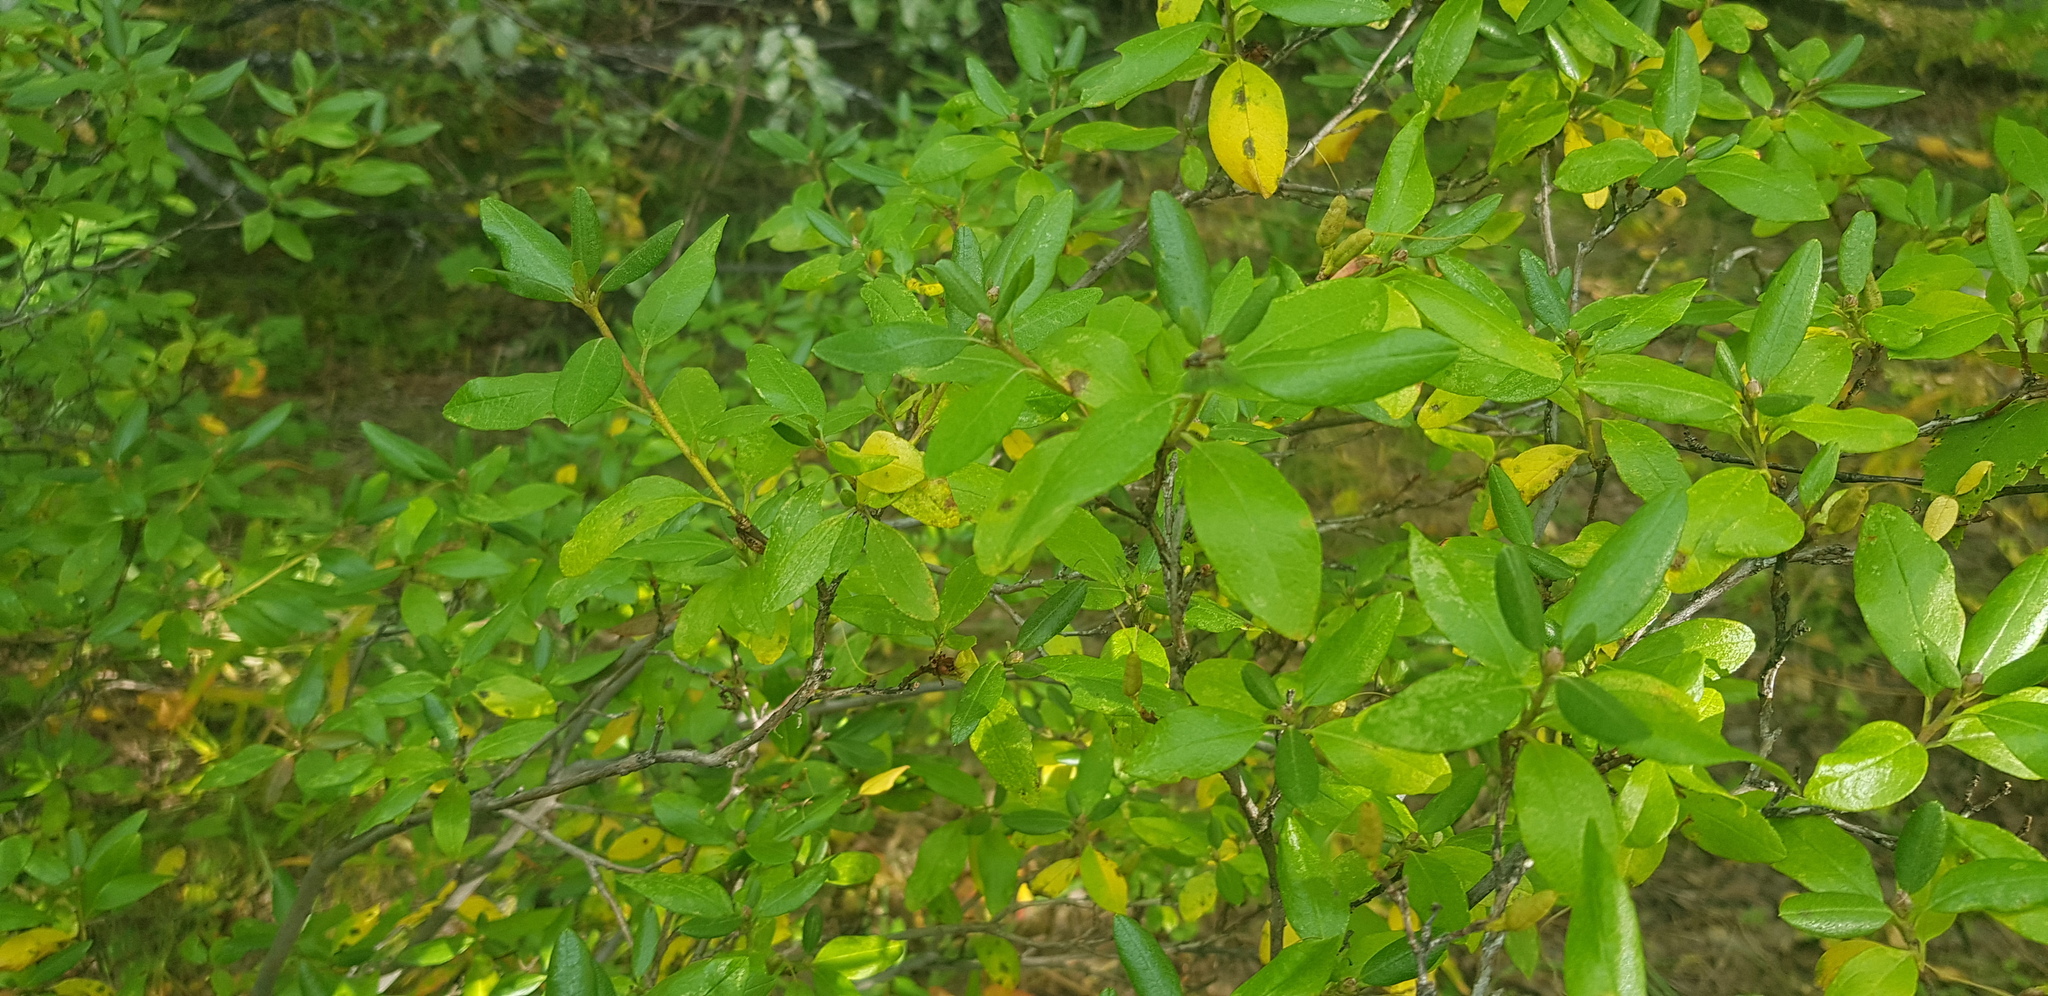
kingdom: Plantae
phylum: Tracheophyta
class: Magnoliopsida
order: Ericales
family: Ericaceae
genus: Rhododendron
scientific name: Rhododendron dauricum
